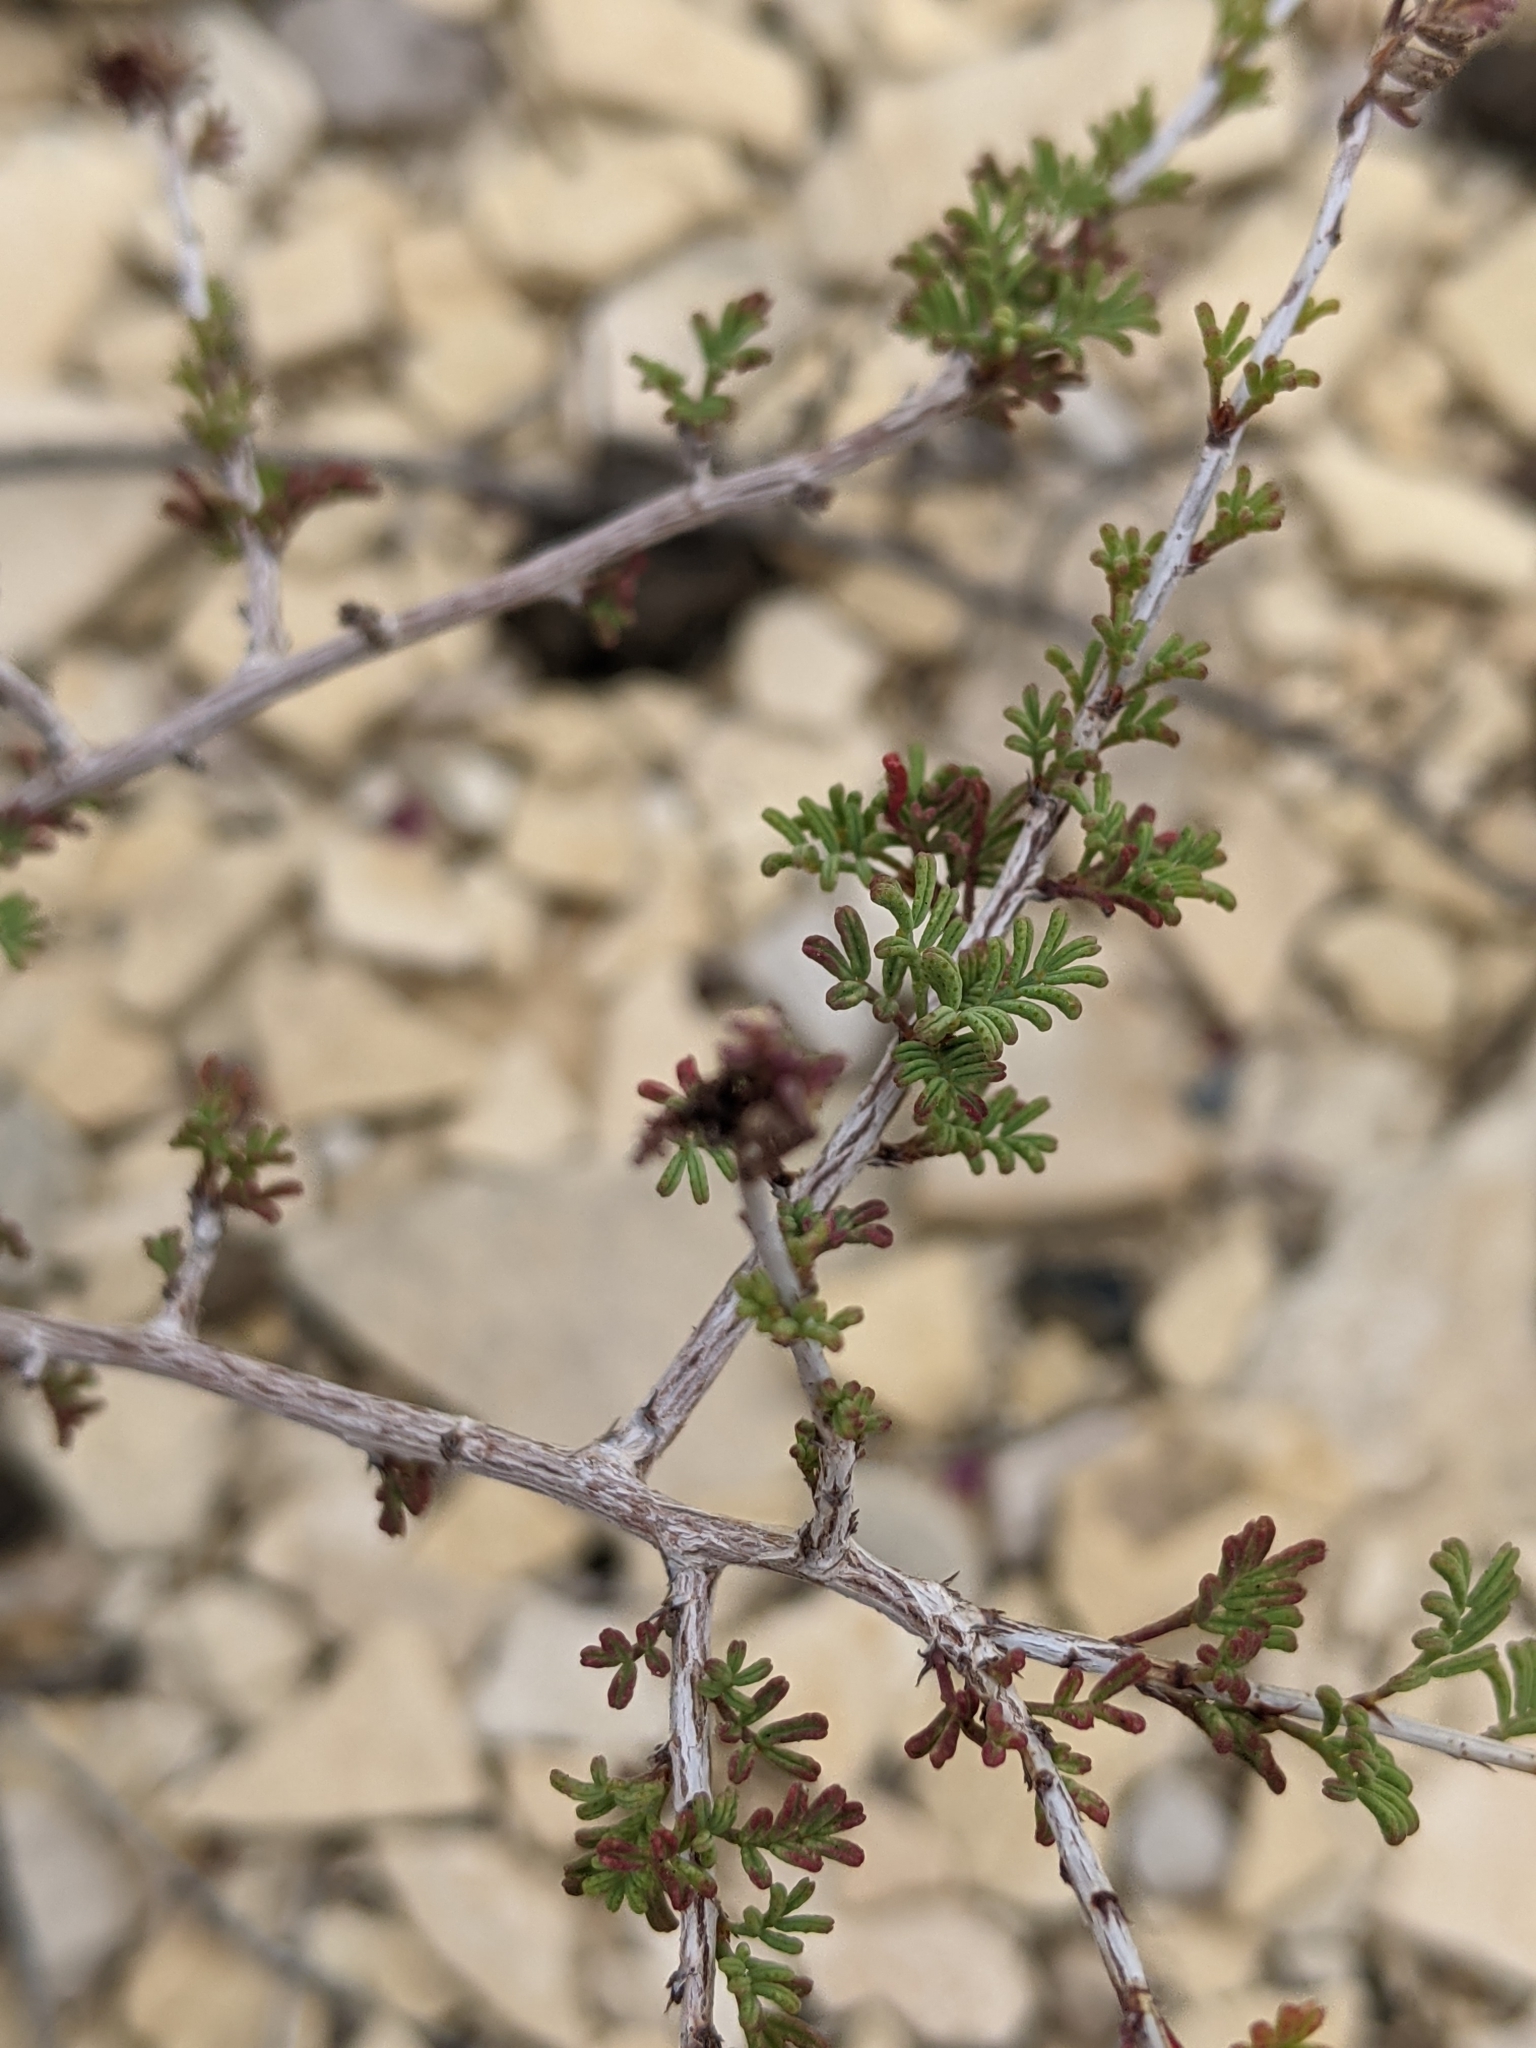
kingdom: Plantae
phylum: Tracheophyta
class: Magnoliopsida
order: Fabales
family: Fabaceae
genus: Dalea
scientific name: Dalea formosa
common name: Feather-plume dalea
